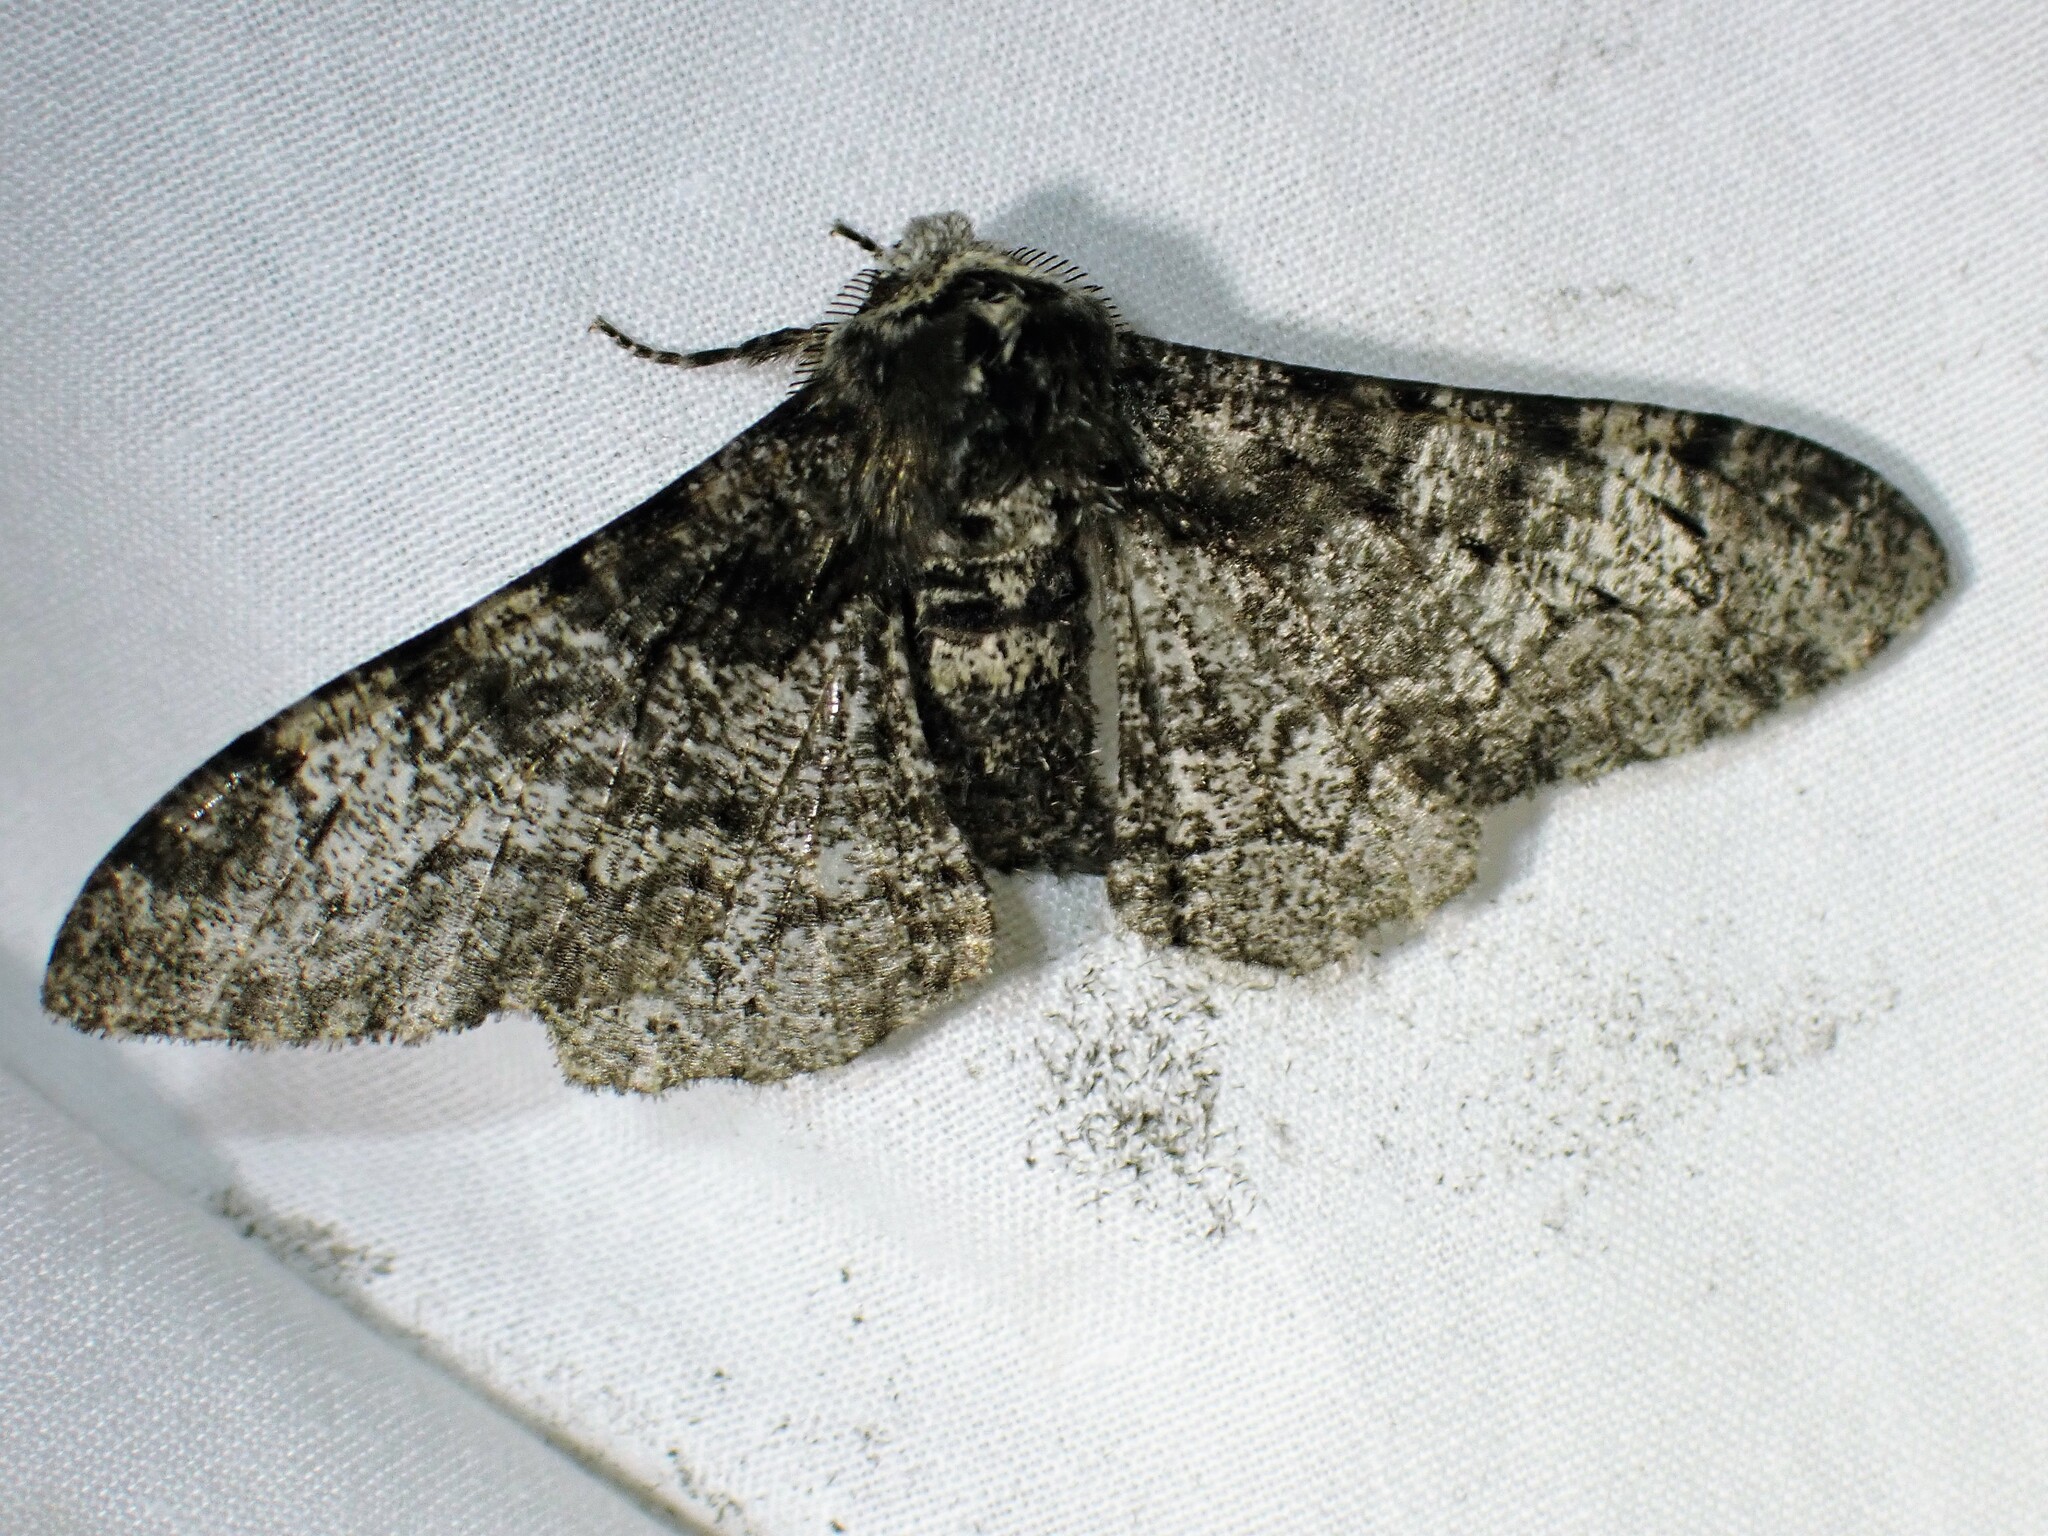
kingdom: Animalia
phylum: Arthropoda
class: Insecta
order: Lepidoptera
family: Geometridae
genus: Biston
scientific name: Biston betularia
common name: Peppered moth
